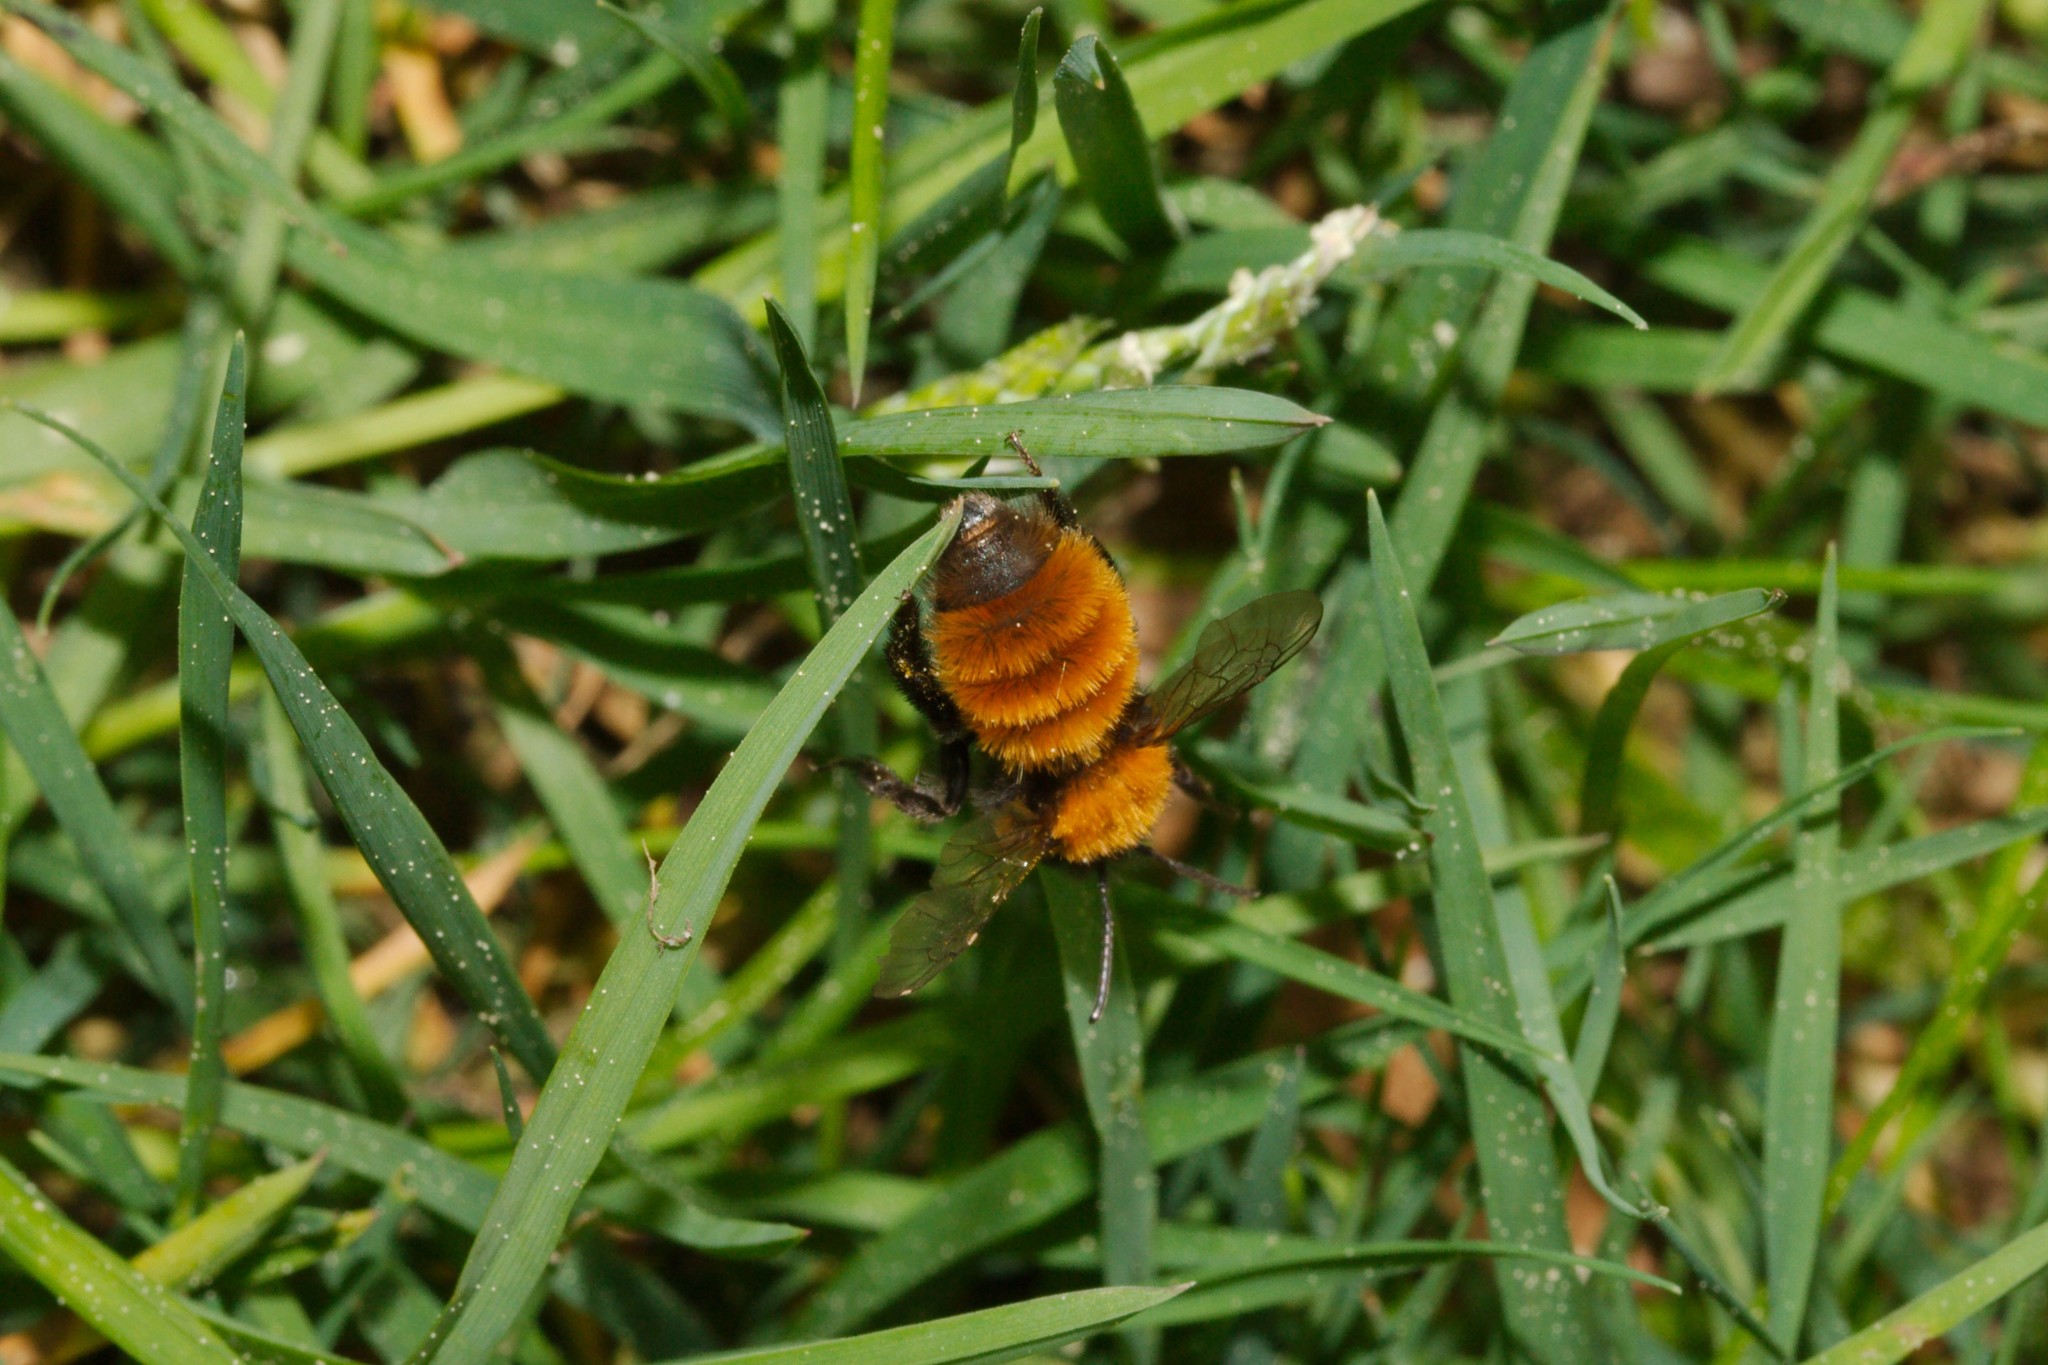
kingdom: Animalia
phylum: Arthropoda
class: Insecta
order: Hymenoptera
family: Andrenidae
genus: Andrena
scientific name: Andrena fulva
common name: Tawny mining bee
